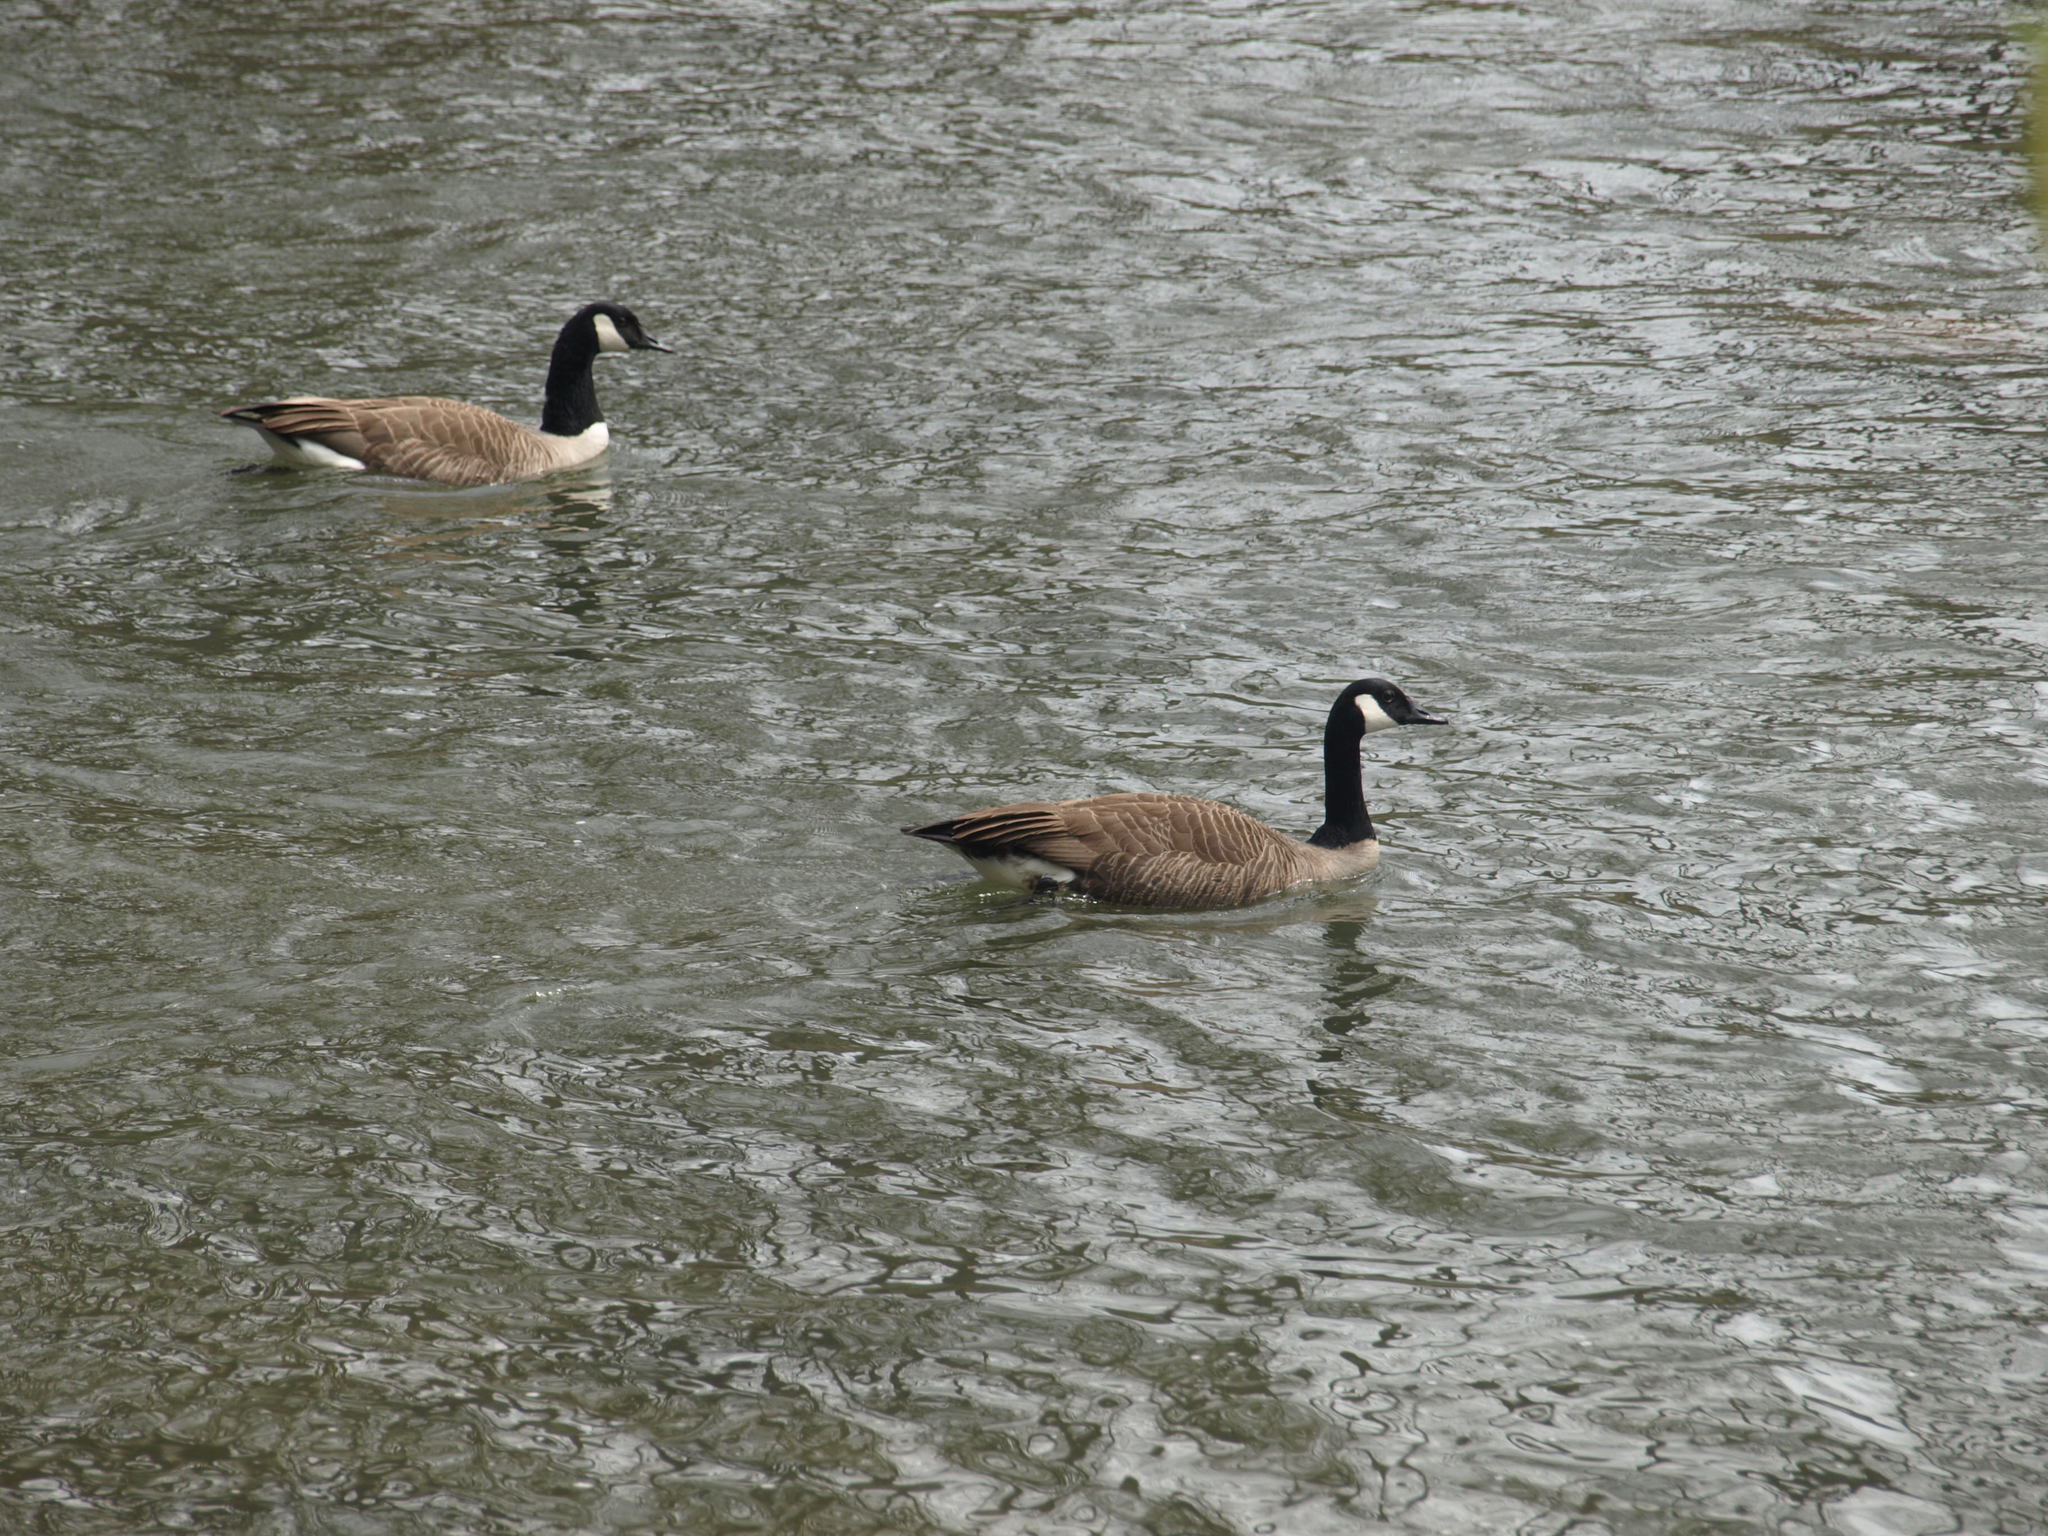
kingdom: Animalia
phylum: Chordata
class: Aves
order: Anseriformes
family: Anatidae
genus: Branta
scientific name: Branta canadensis
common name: Canada goose
